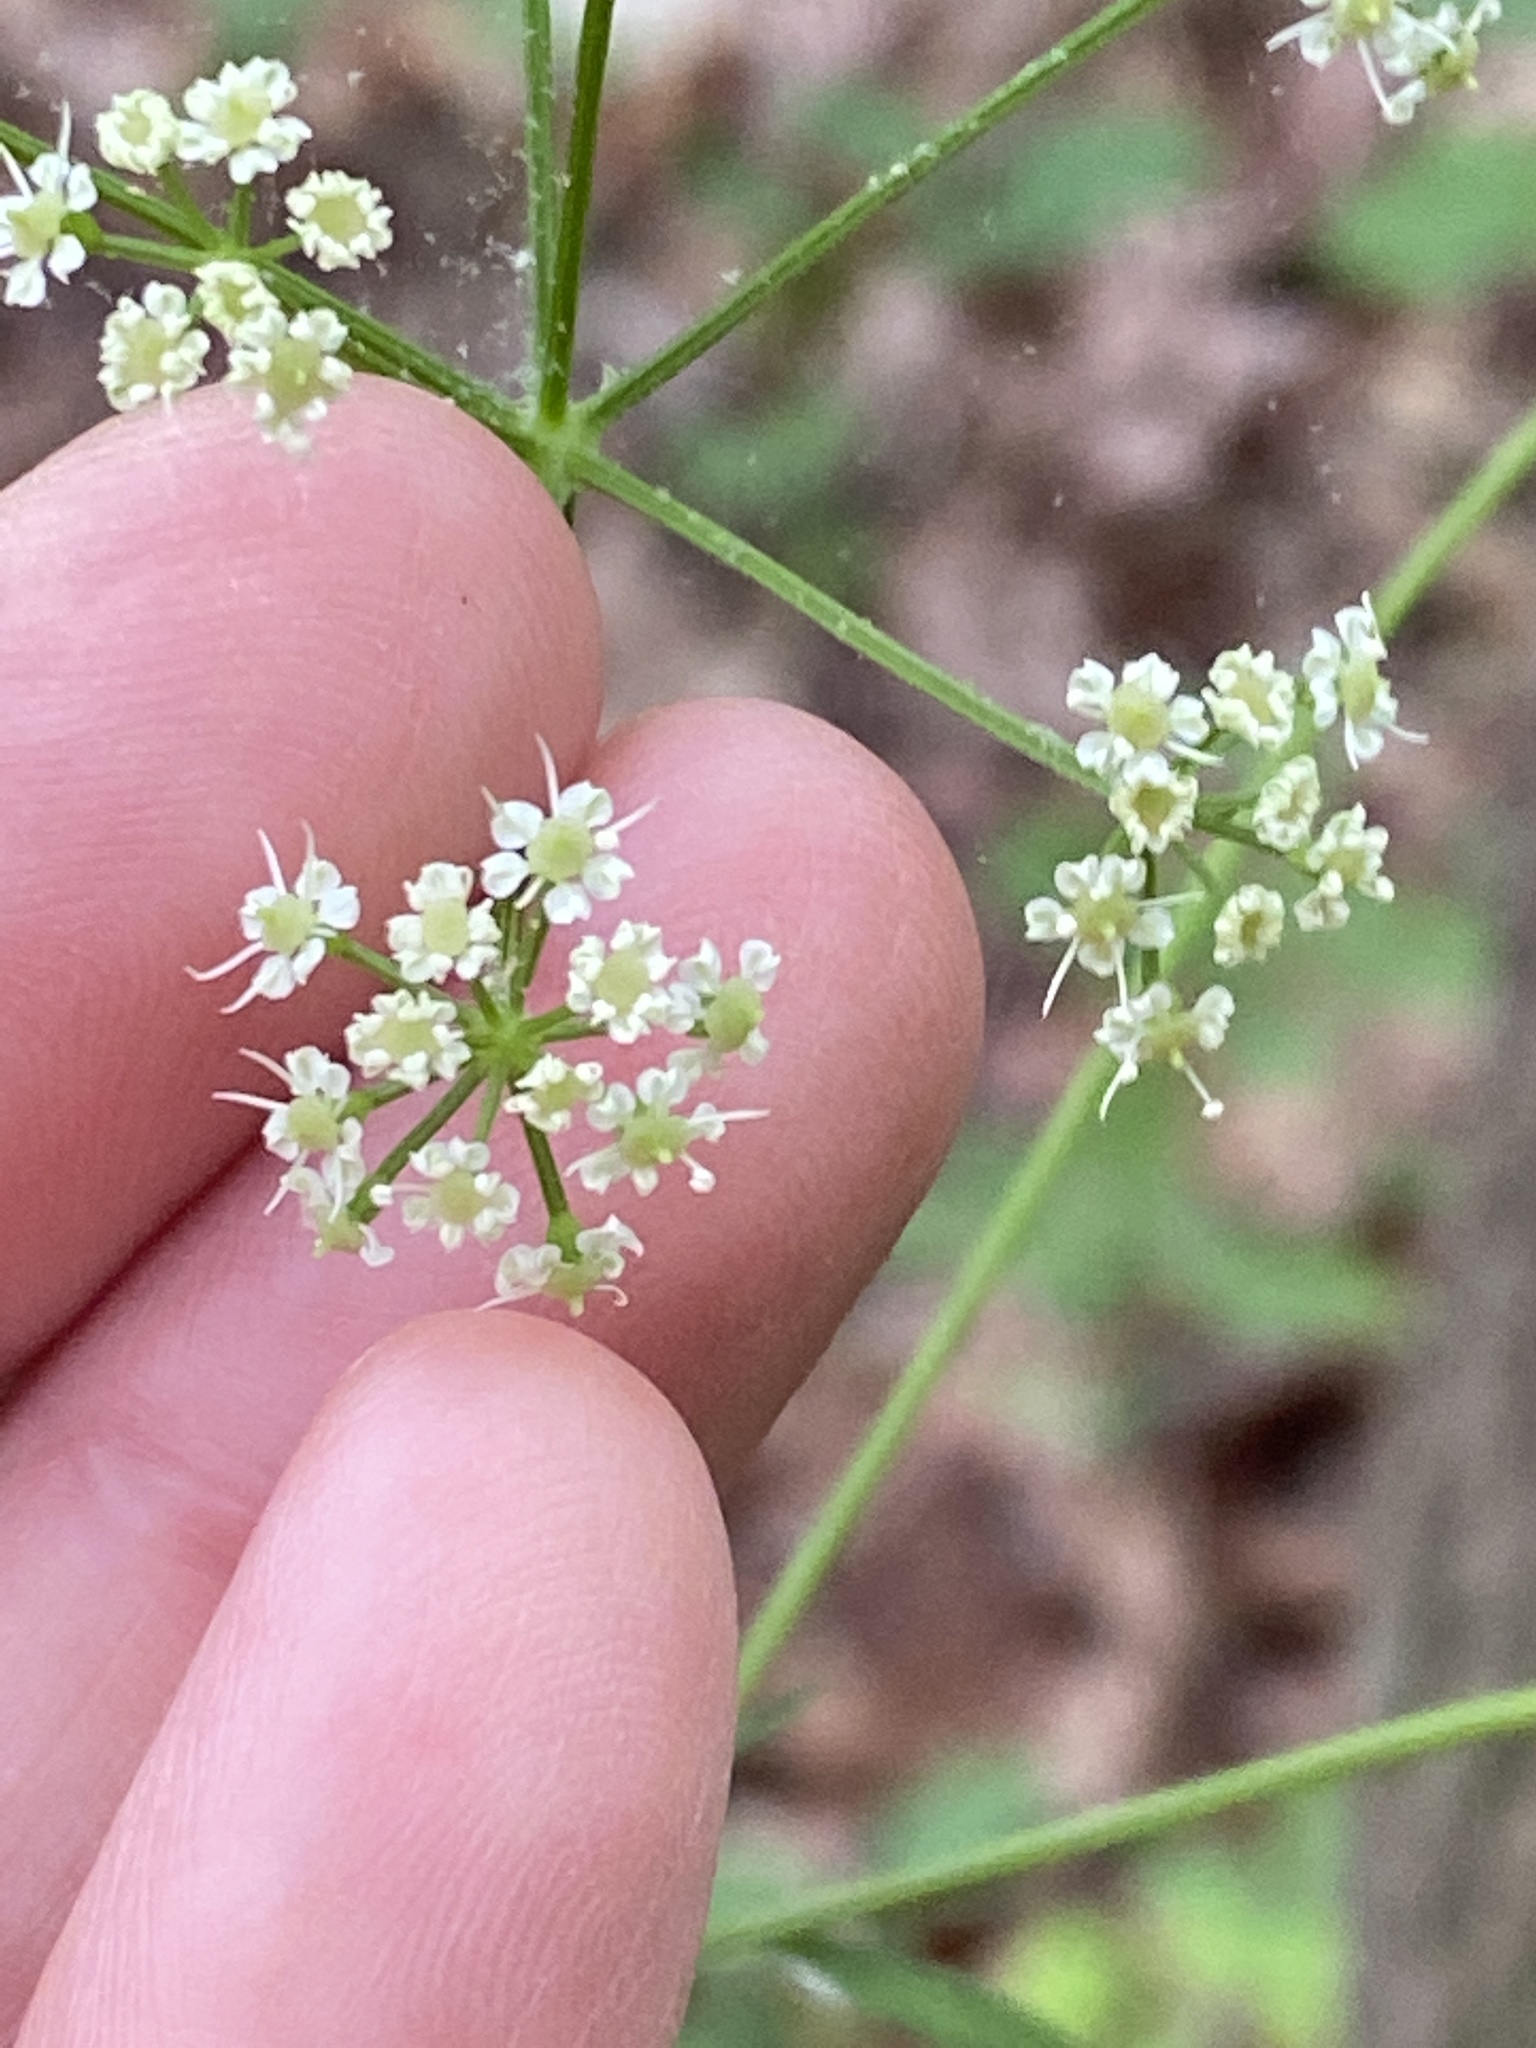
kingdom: Plantae
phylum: Tracheophyta
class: Magnoliopsida
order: Apiales
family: Apiaceae
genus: Ligusticum
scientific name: Ligusticum canadense
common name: American lovage
